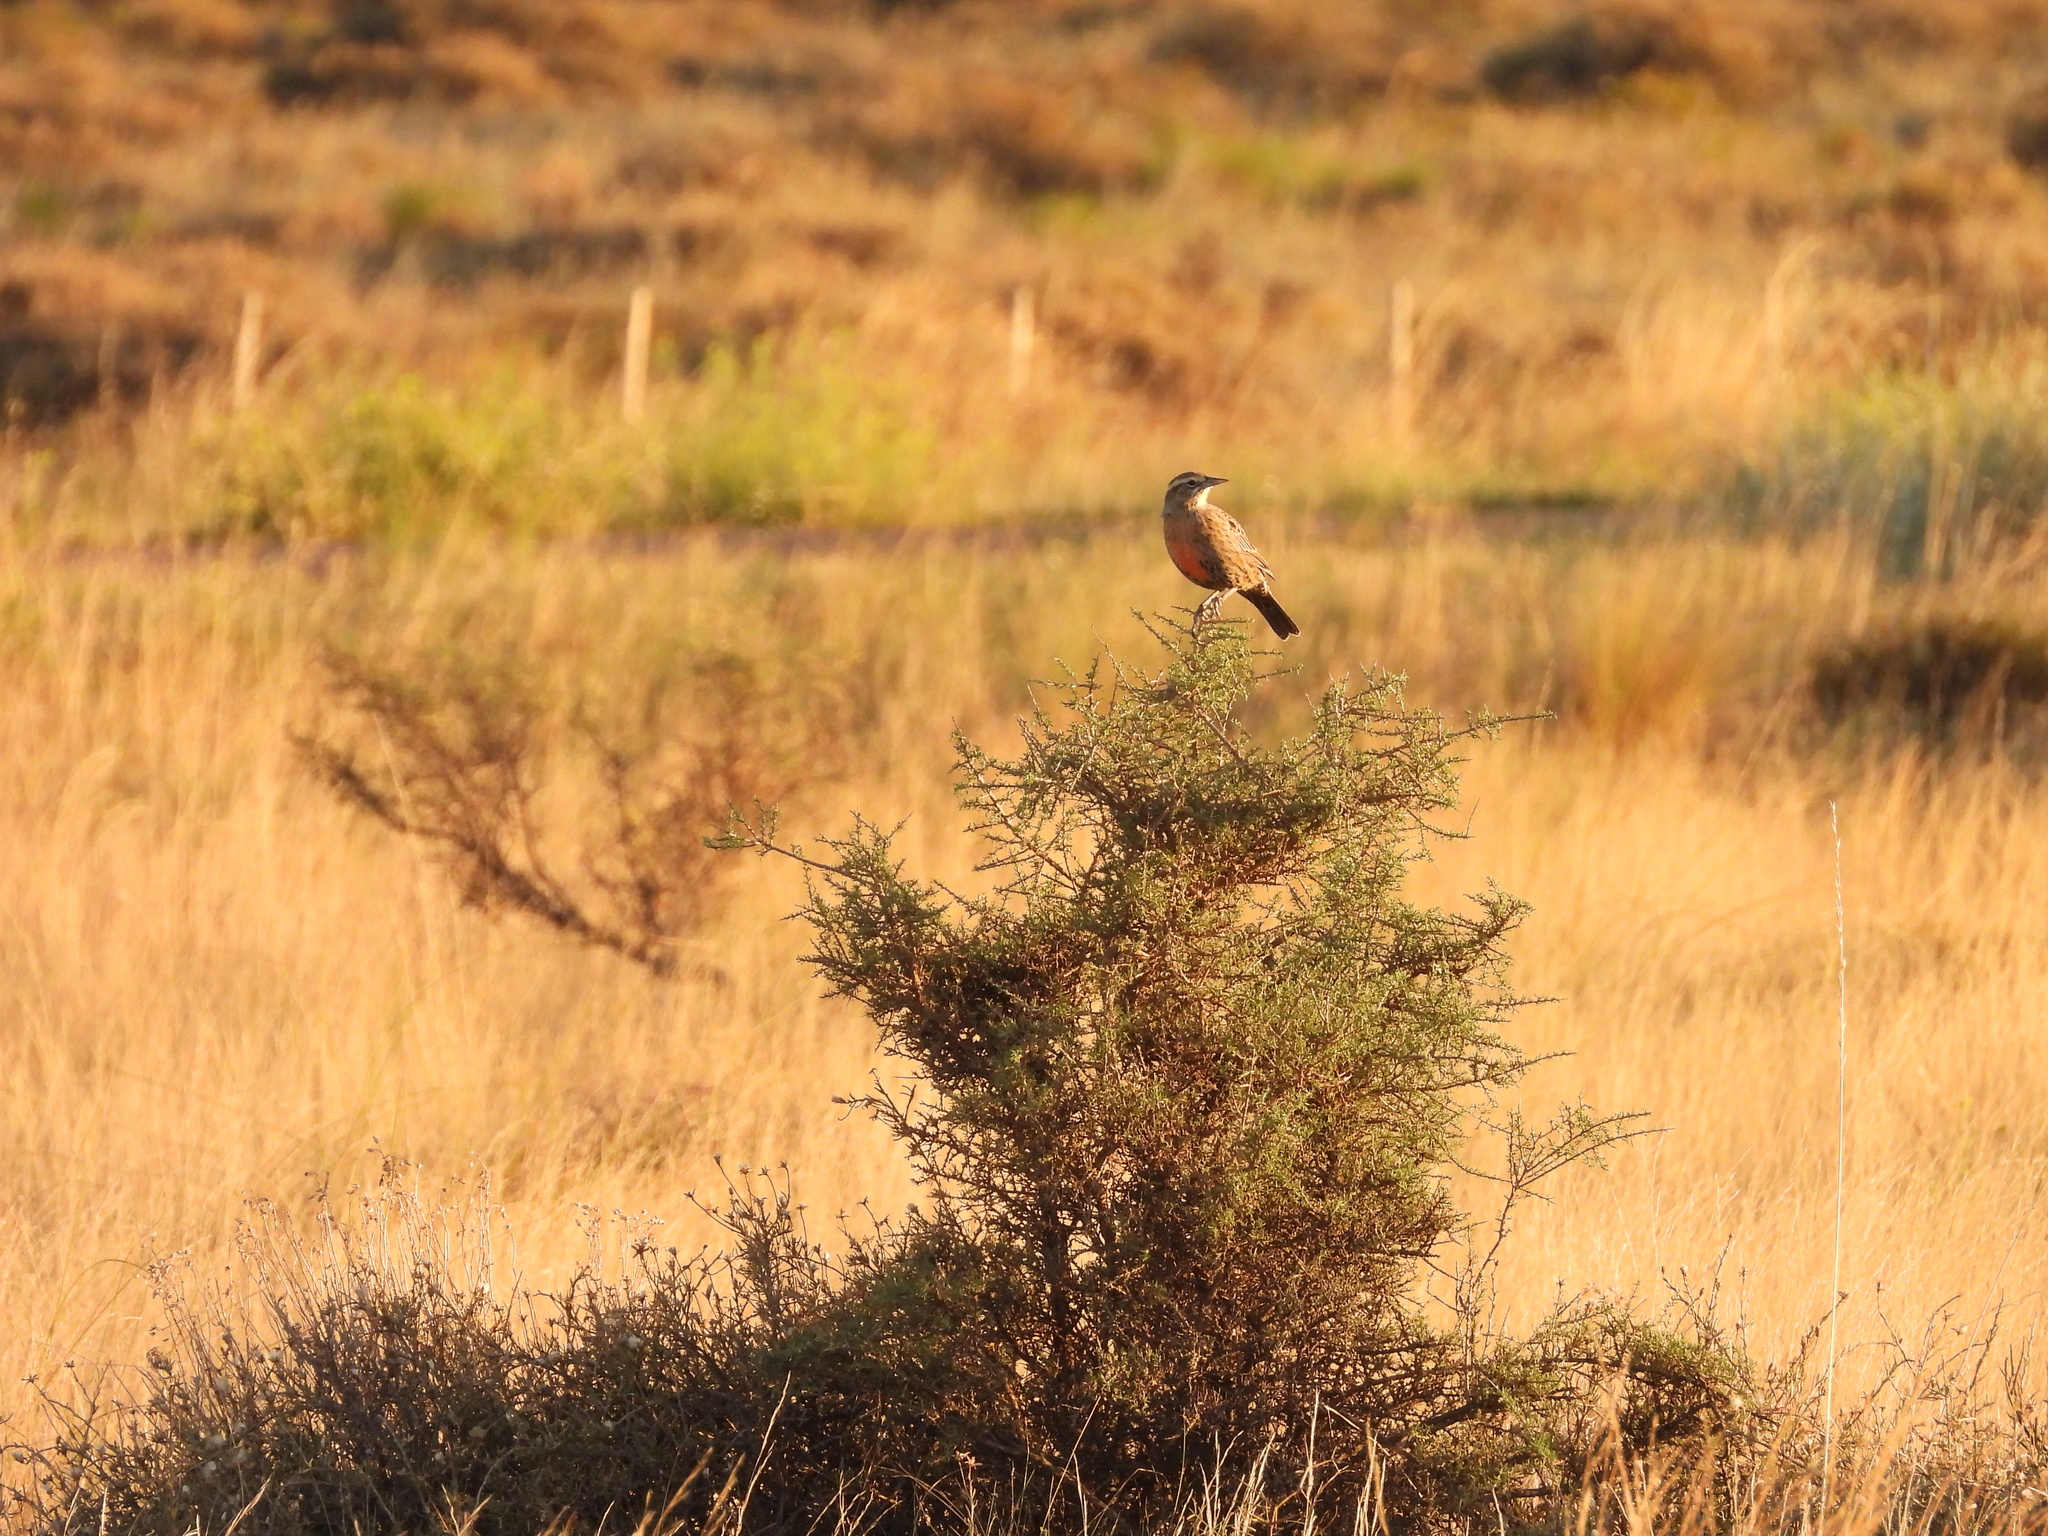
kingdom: Animalia
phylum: Chordata
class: Aves
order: Passeriformes
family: Icteridae
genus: Sturnella
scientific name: Sturnella loyca
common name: Long-tailed meadowlark
